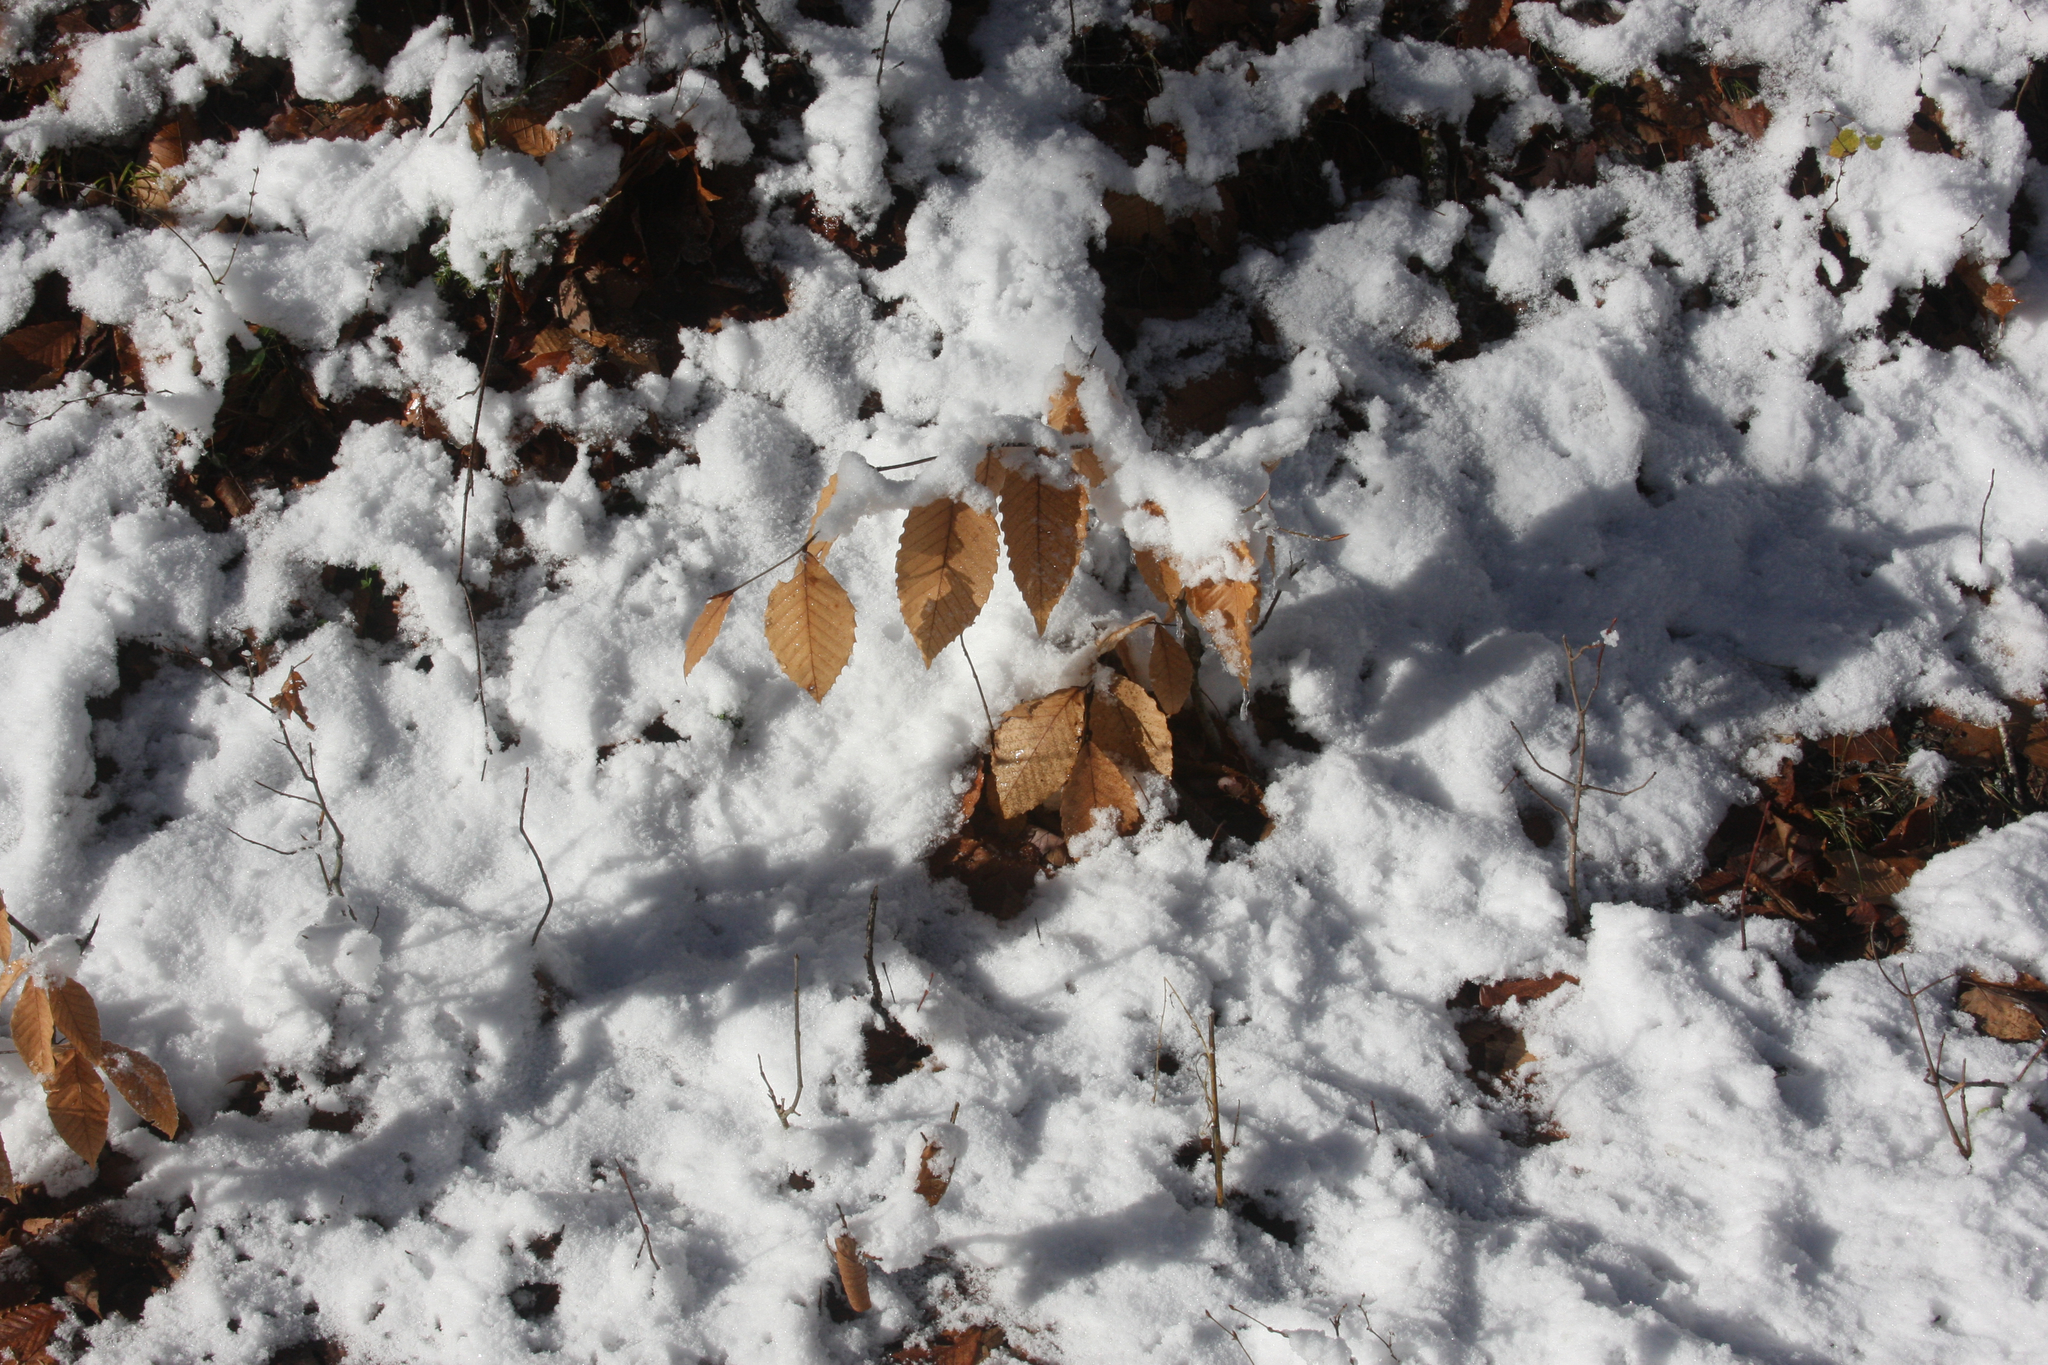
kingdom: Plantae
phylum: Tracheophyta
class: Magnoliopsida
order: Fagales
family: Fagaceae
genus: Fagus
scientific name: Fagus grandifolia
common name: American beech
